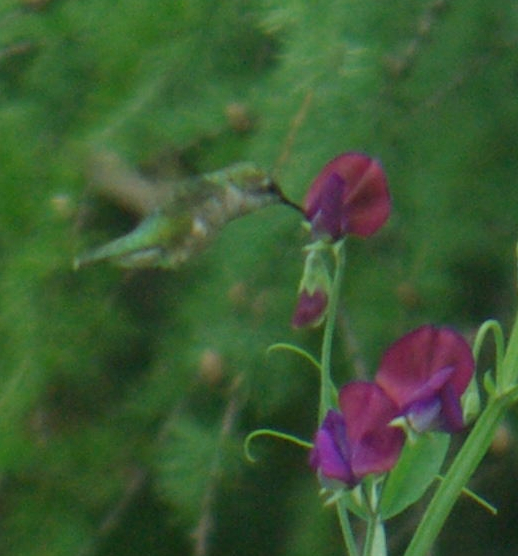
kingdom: Animalia
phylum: Chordata
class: Aves
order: Apodiformes
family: Trochilidae
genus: Archilochus
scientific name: Archilochus colubris
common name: Ruby-throated hummingbird
